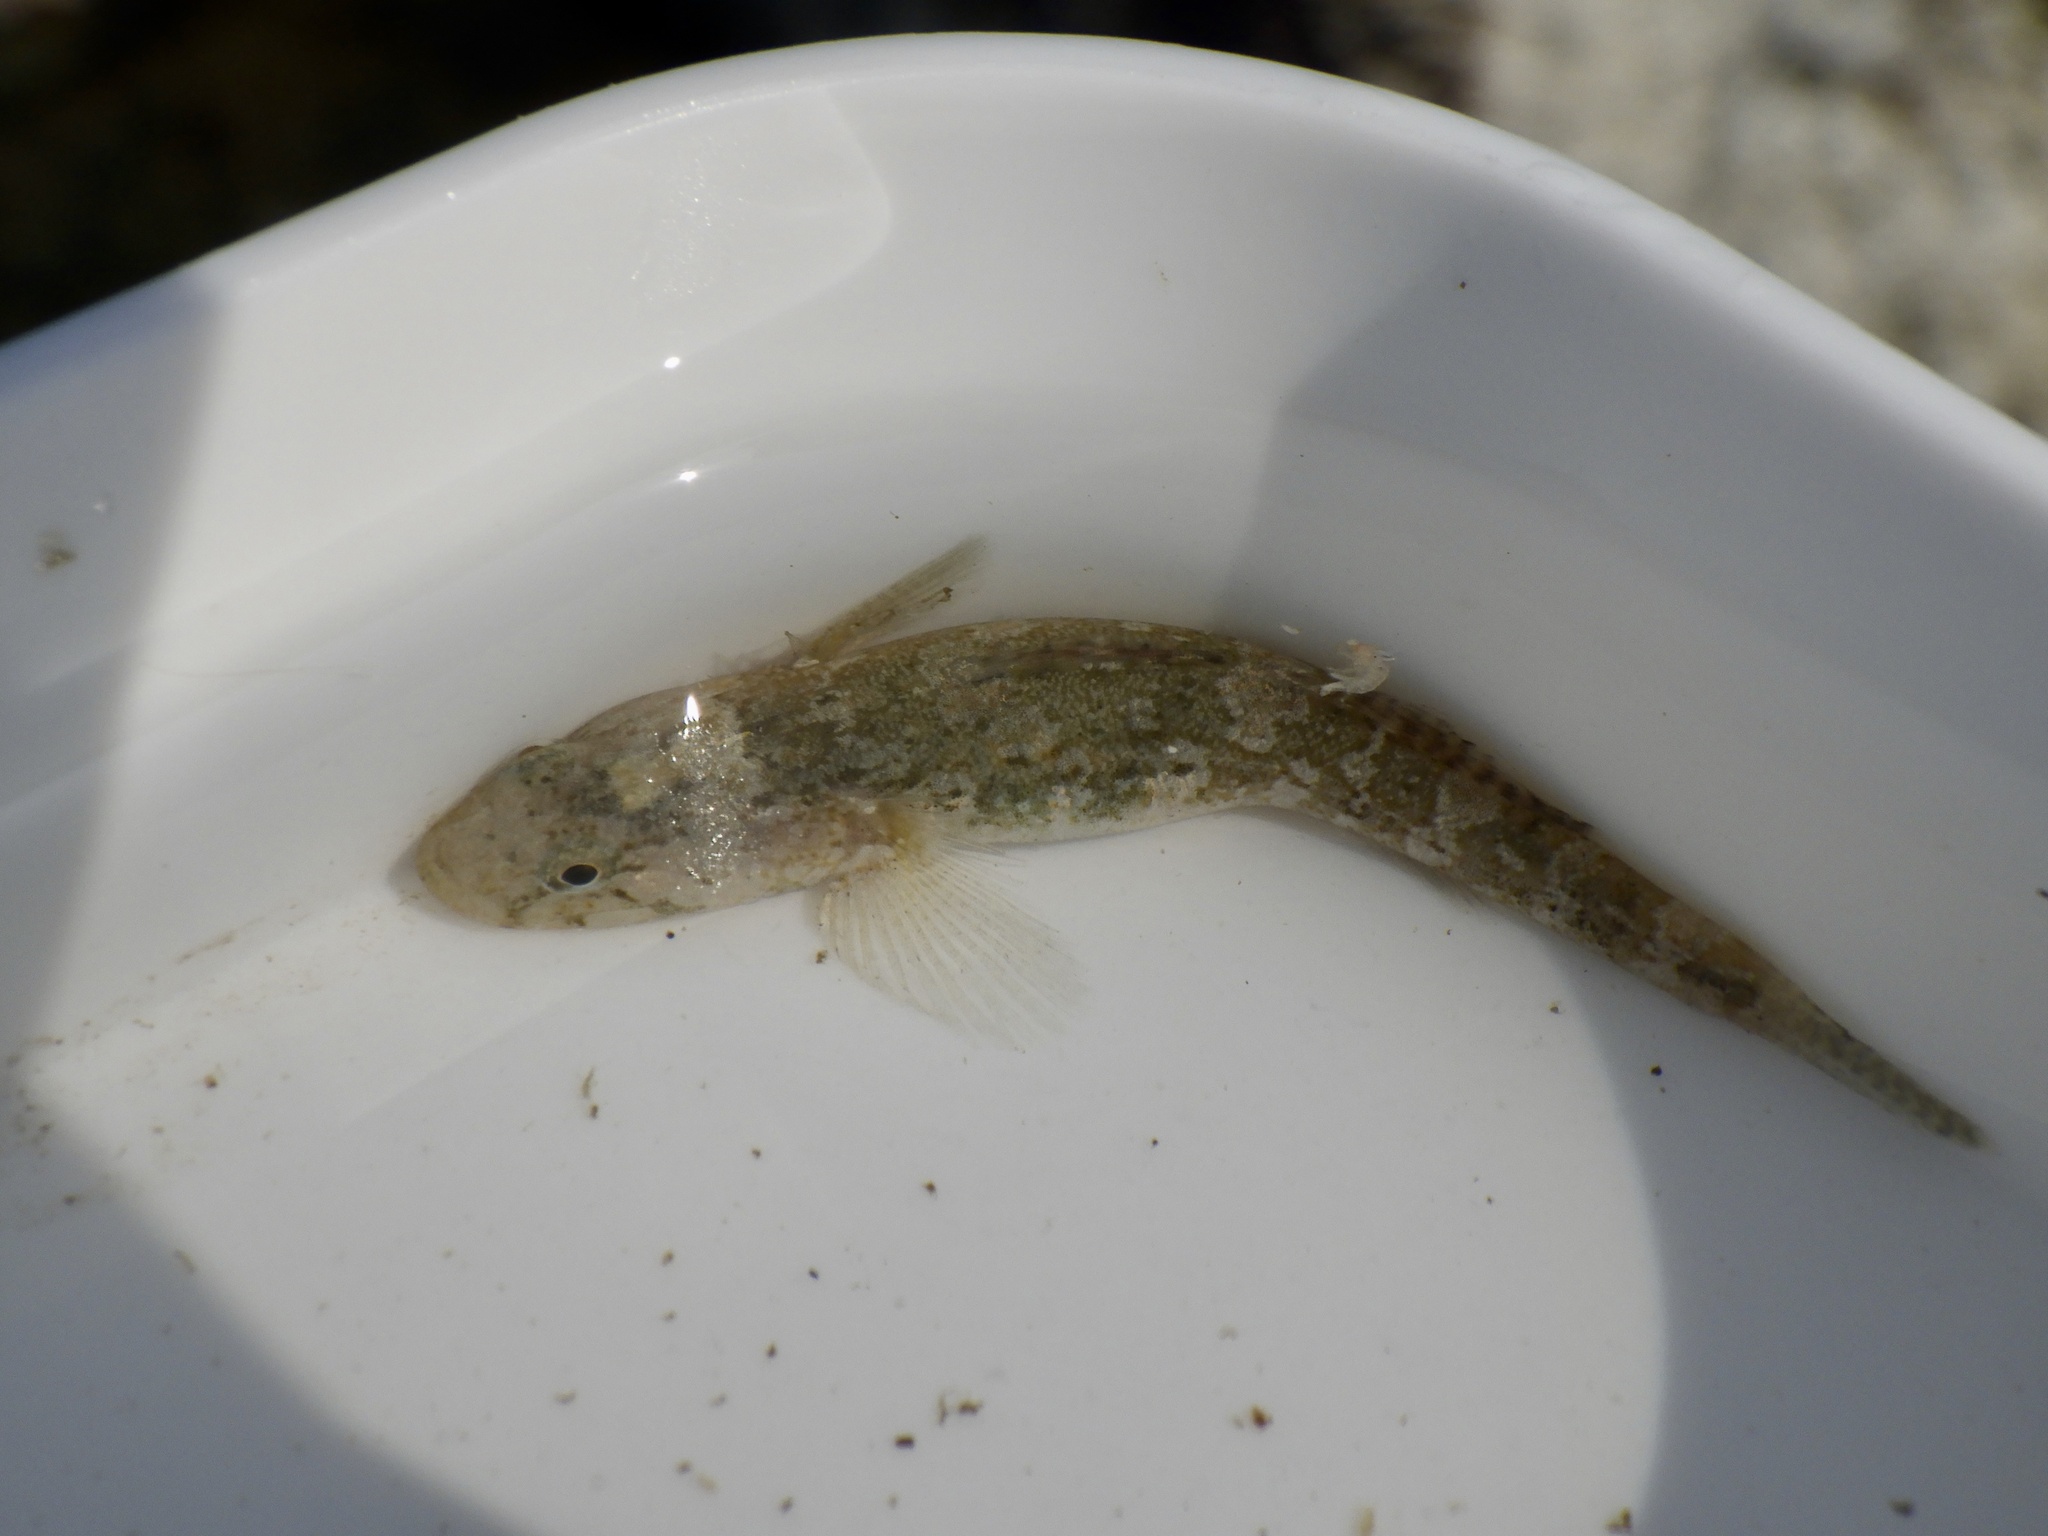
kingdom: Animalia
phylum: Chordata
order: Perciformes
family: Gobiidae
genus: Chaenogobius
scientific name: Chaenogobius annularis
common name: Forktongue goby
